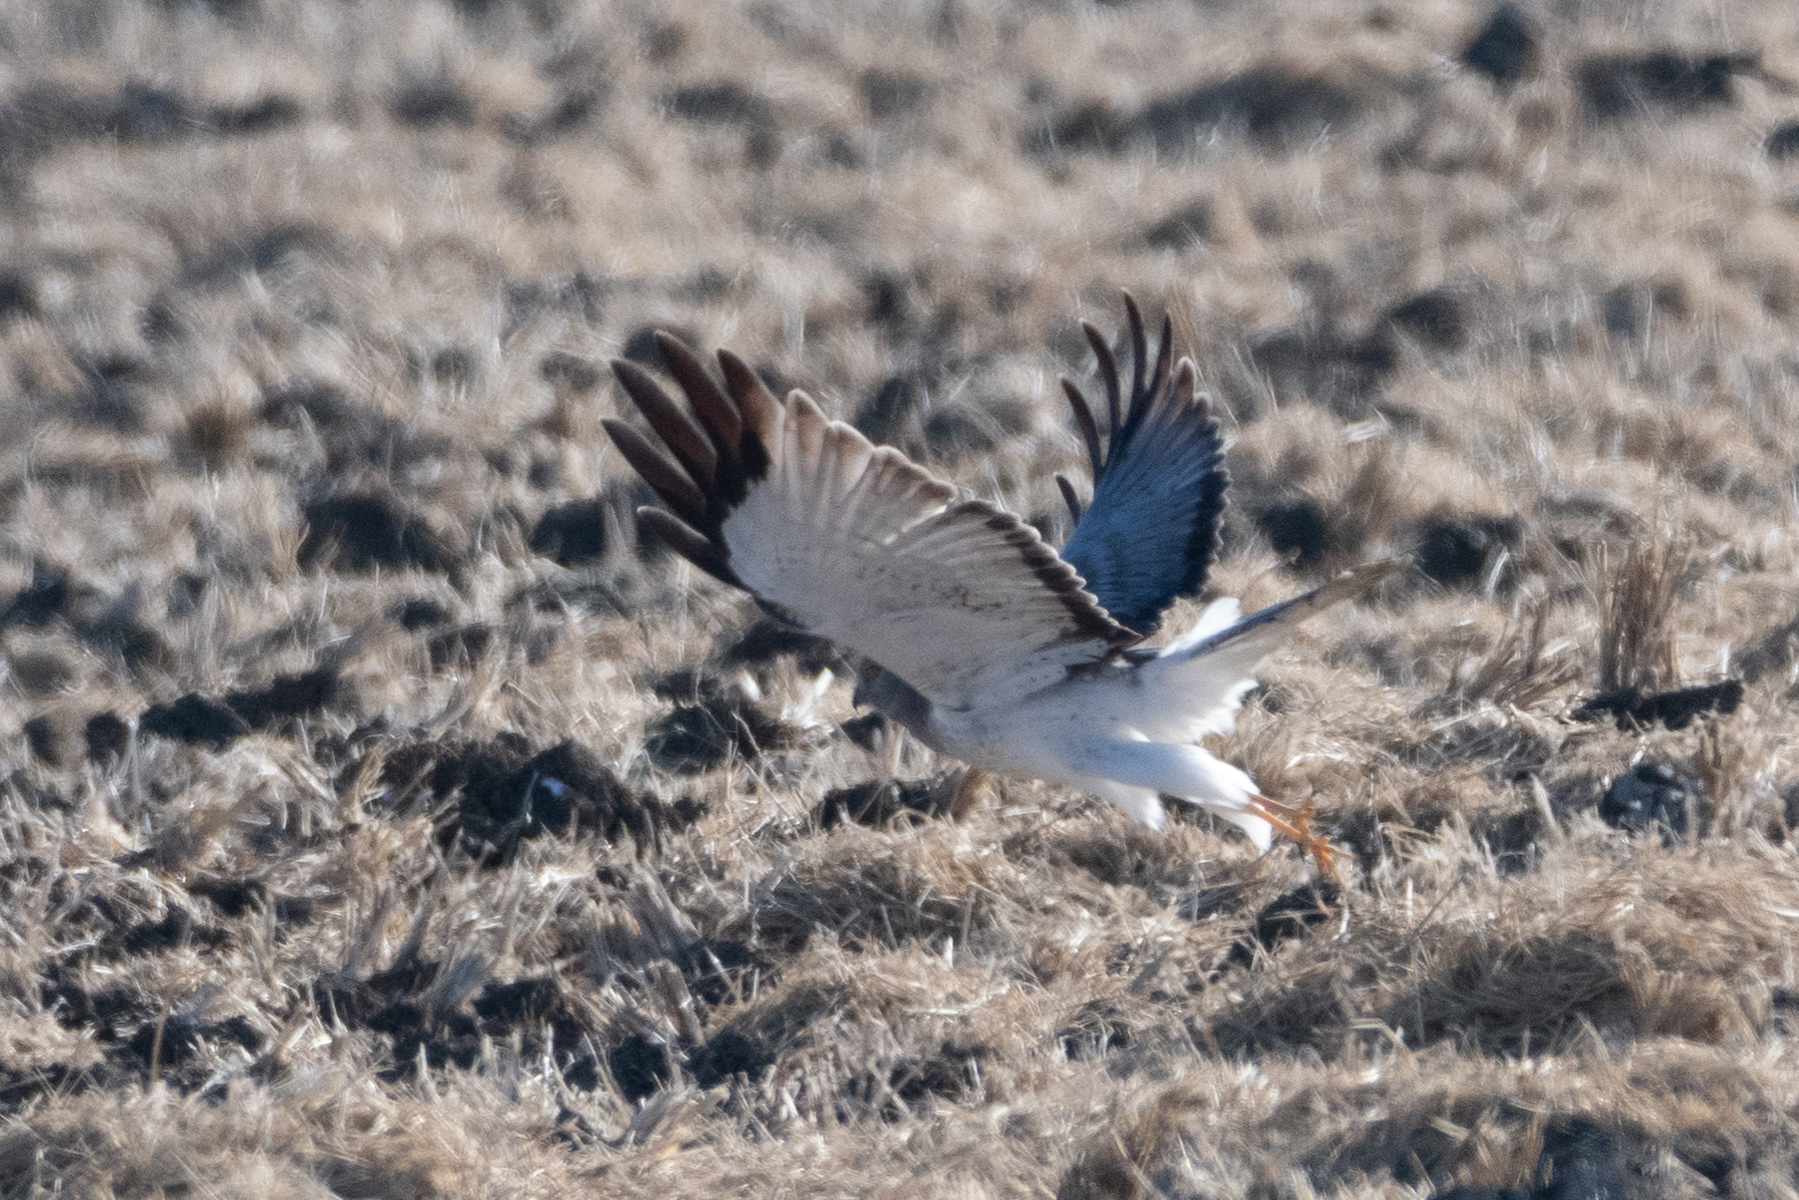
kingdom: Animalia
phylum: Chordata
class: Aves
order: Accipitriformes
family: Accipitridae
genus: Circus
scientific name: Circus cyaneus
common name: Hen harrier
